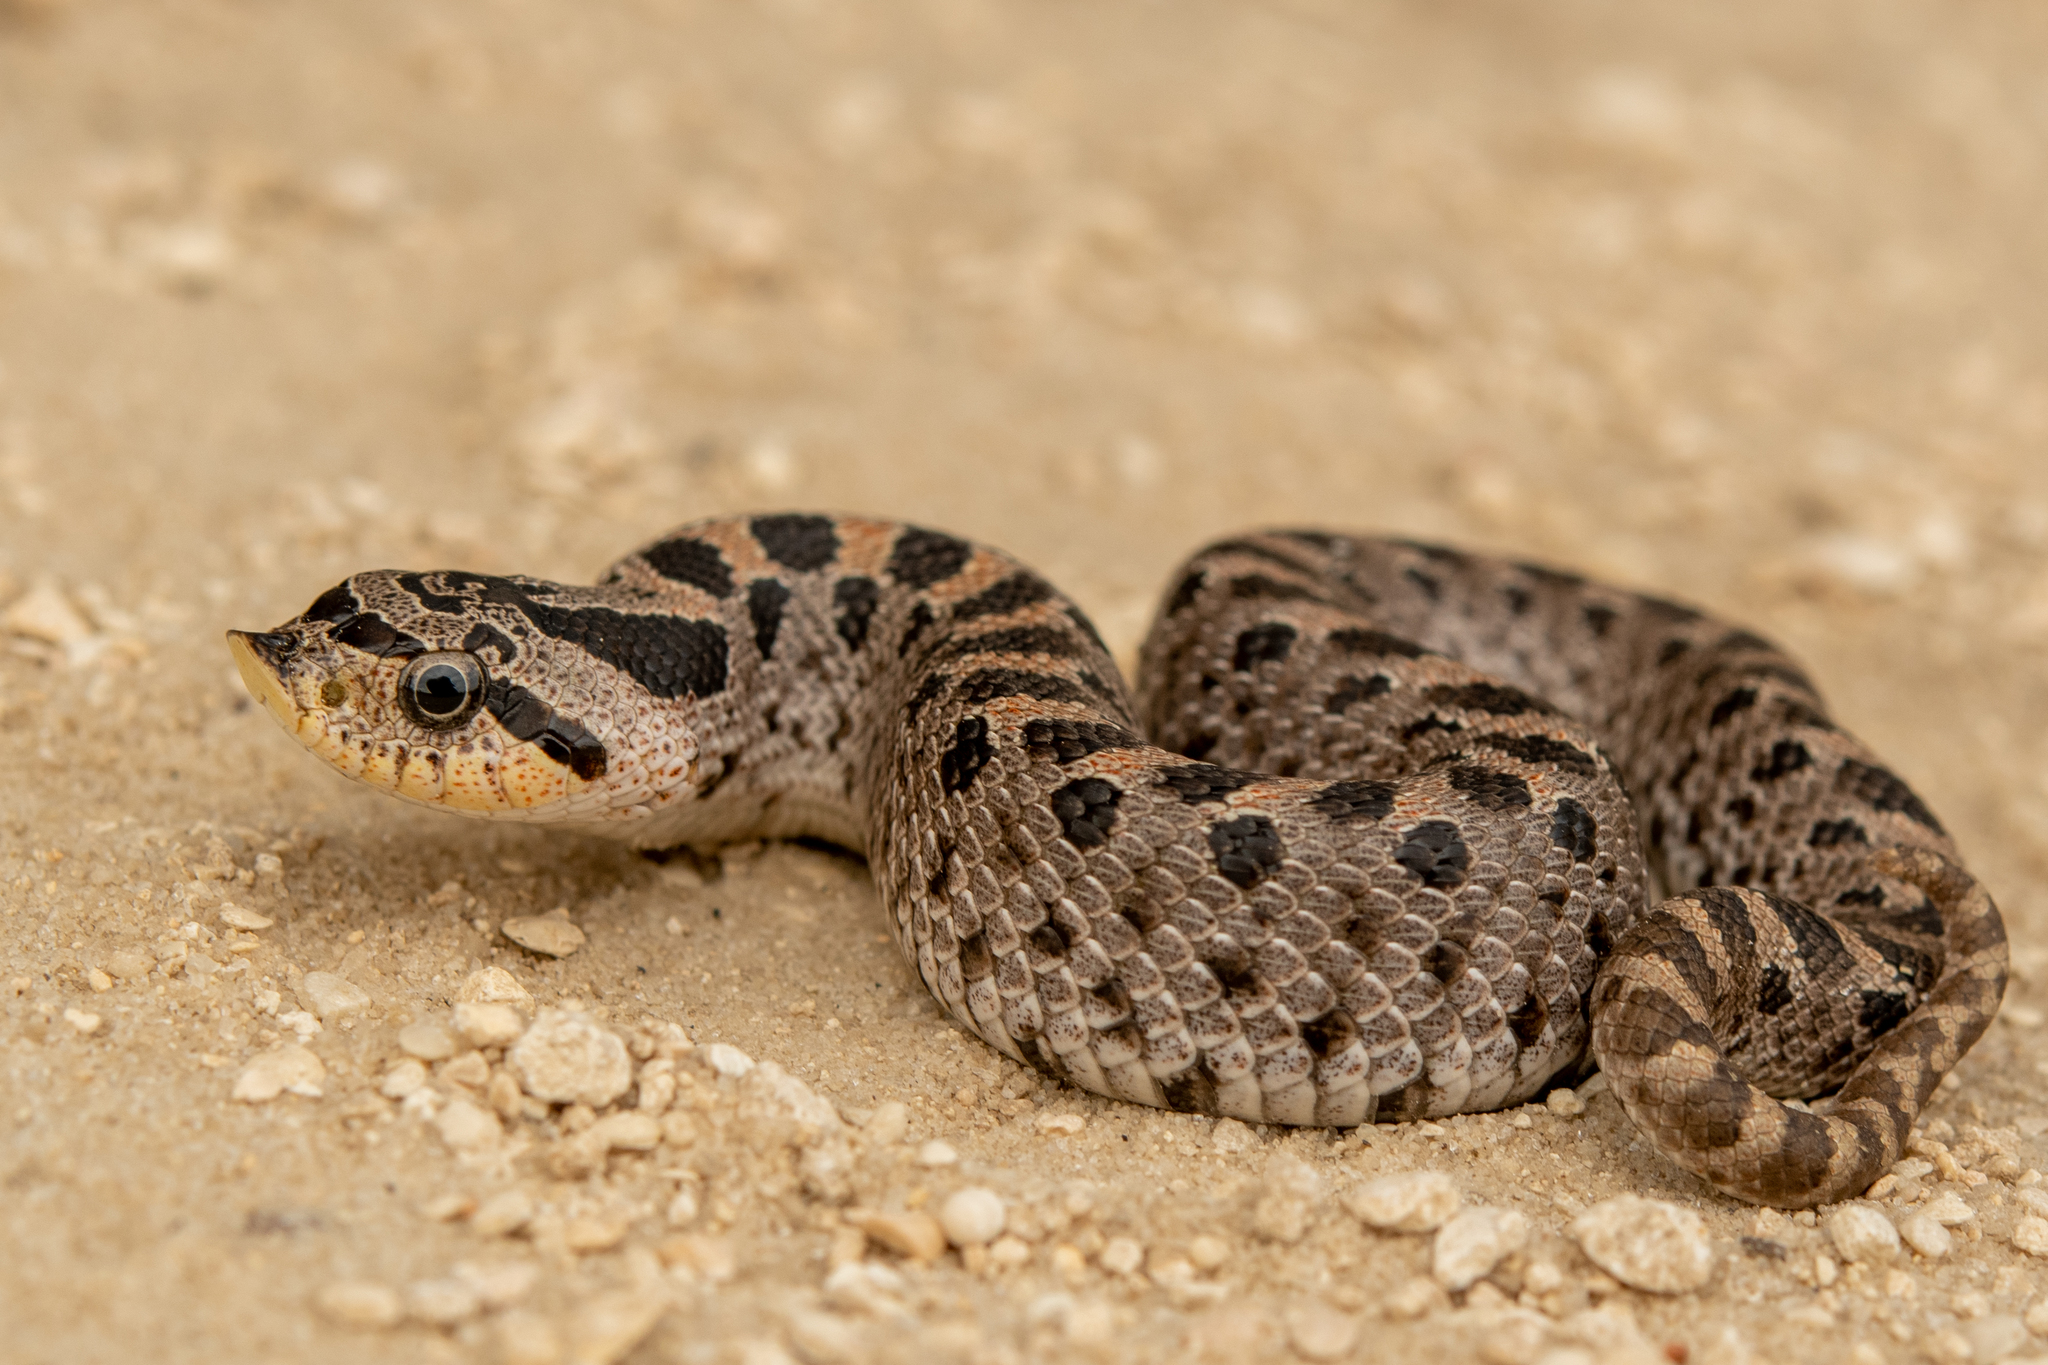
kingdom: Animalia
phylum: Chordata
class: Squamata
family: Colubridae
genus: Heterodon
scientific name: Heterodon simus
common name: Southern hognose snake
